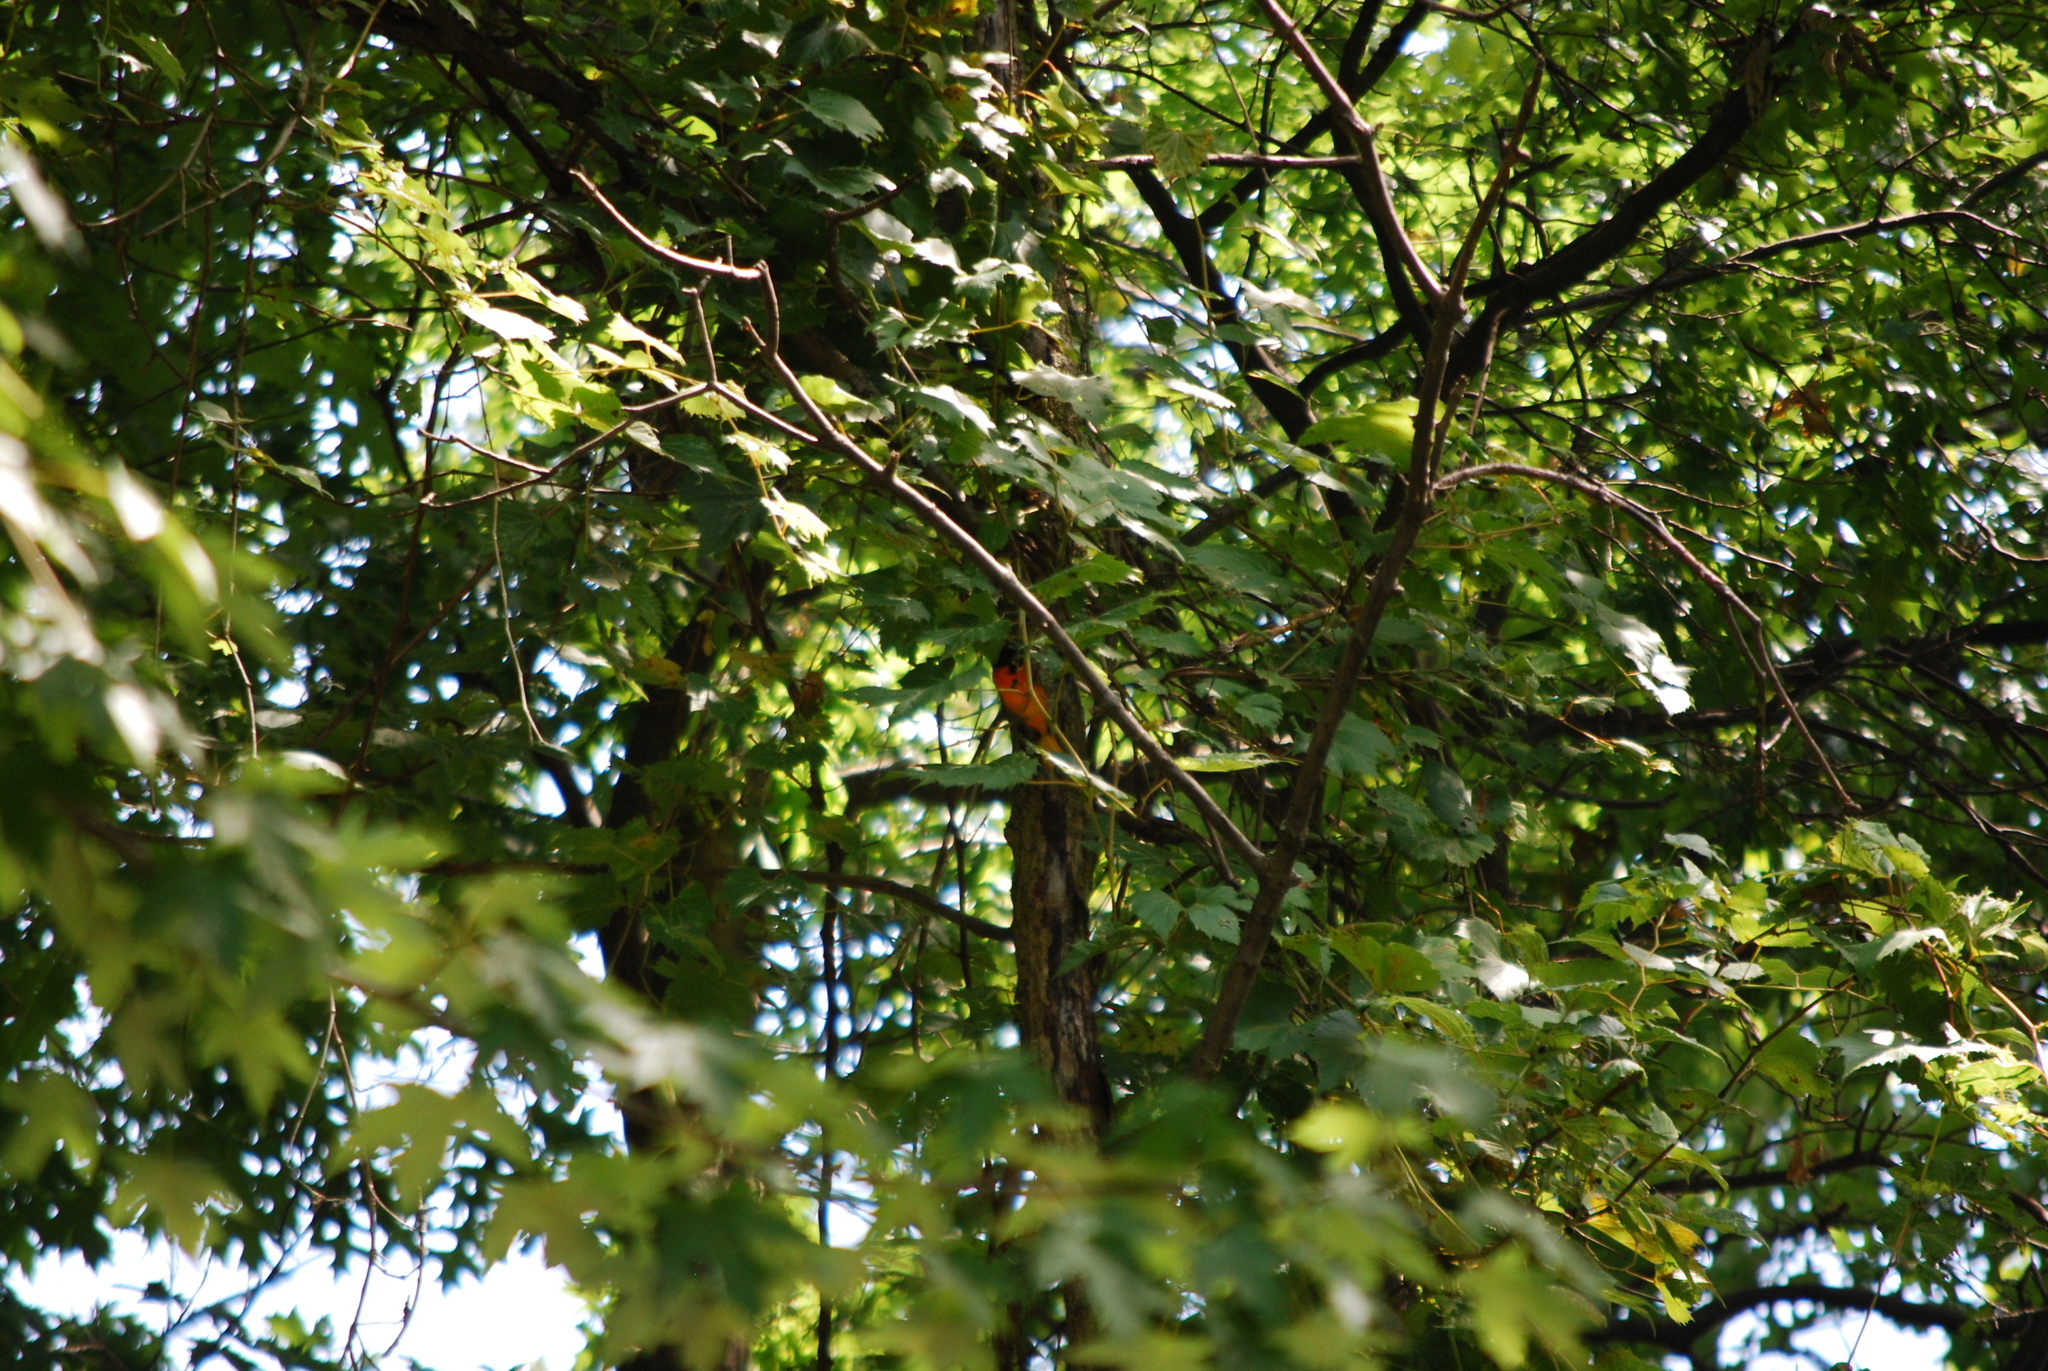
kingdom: Animalia
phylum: Chordata
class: Aves
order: Passeriformes
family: Icteridae
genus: Icterus
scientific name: Icterus galbula
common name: Baltimore oriole
